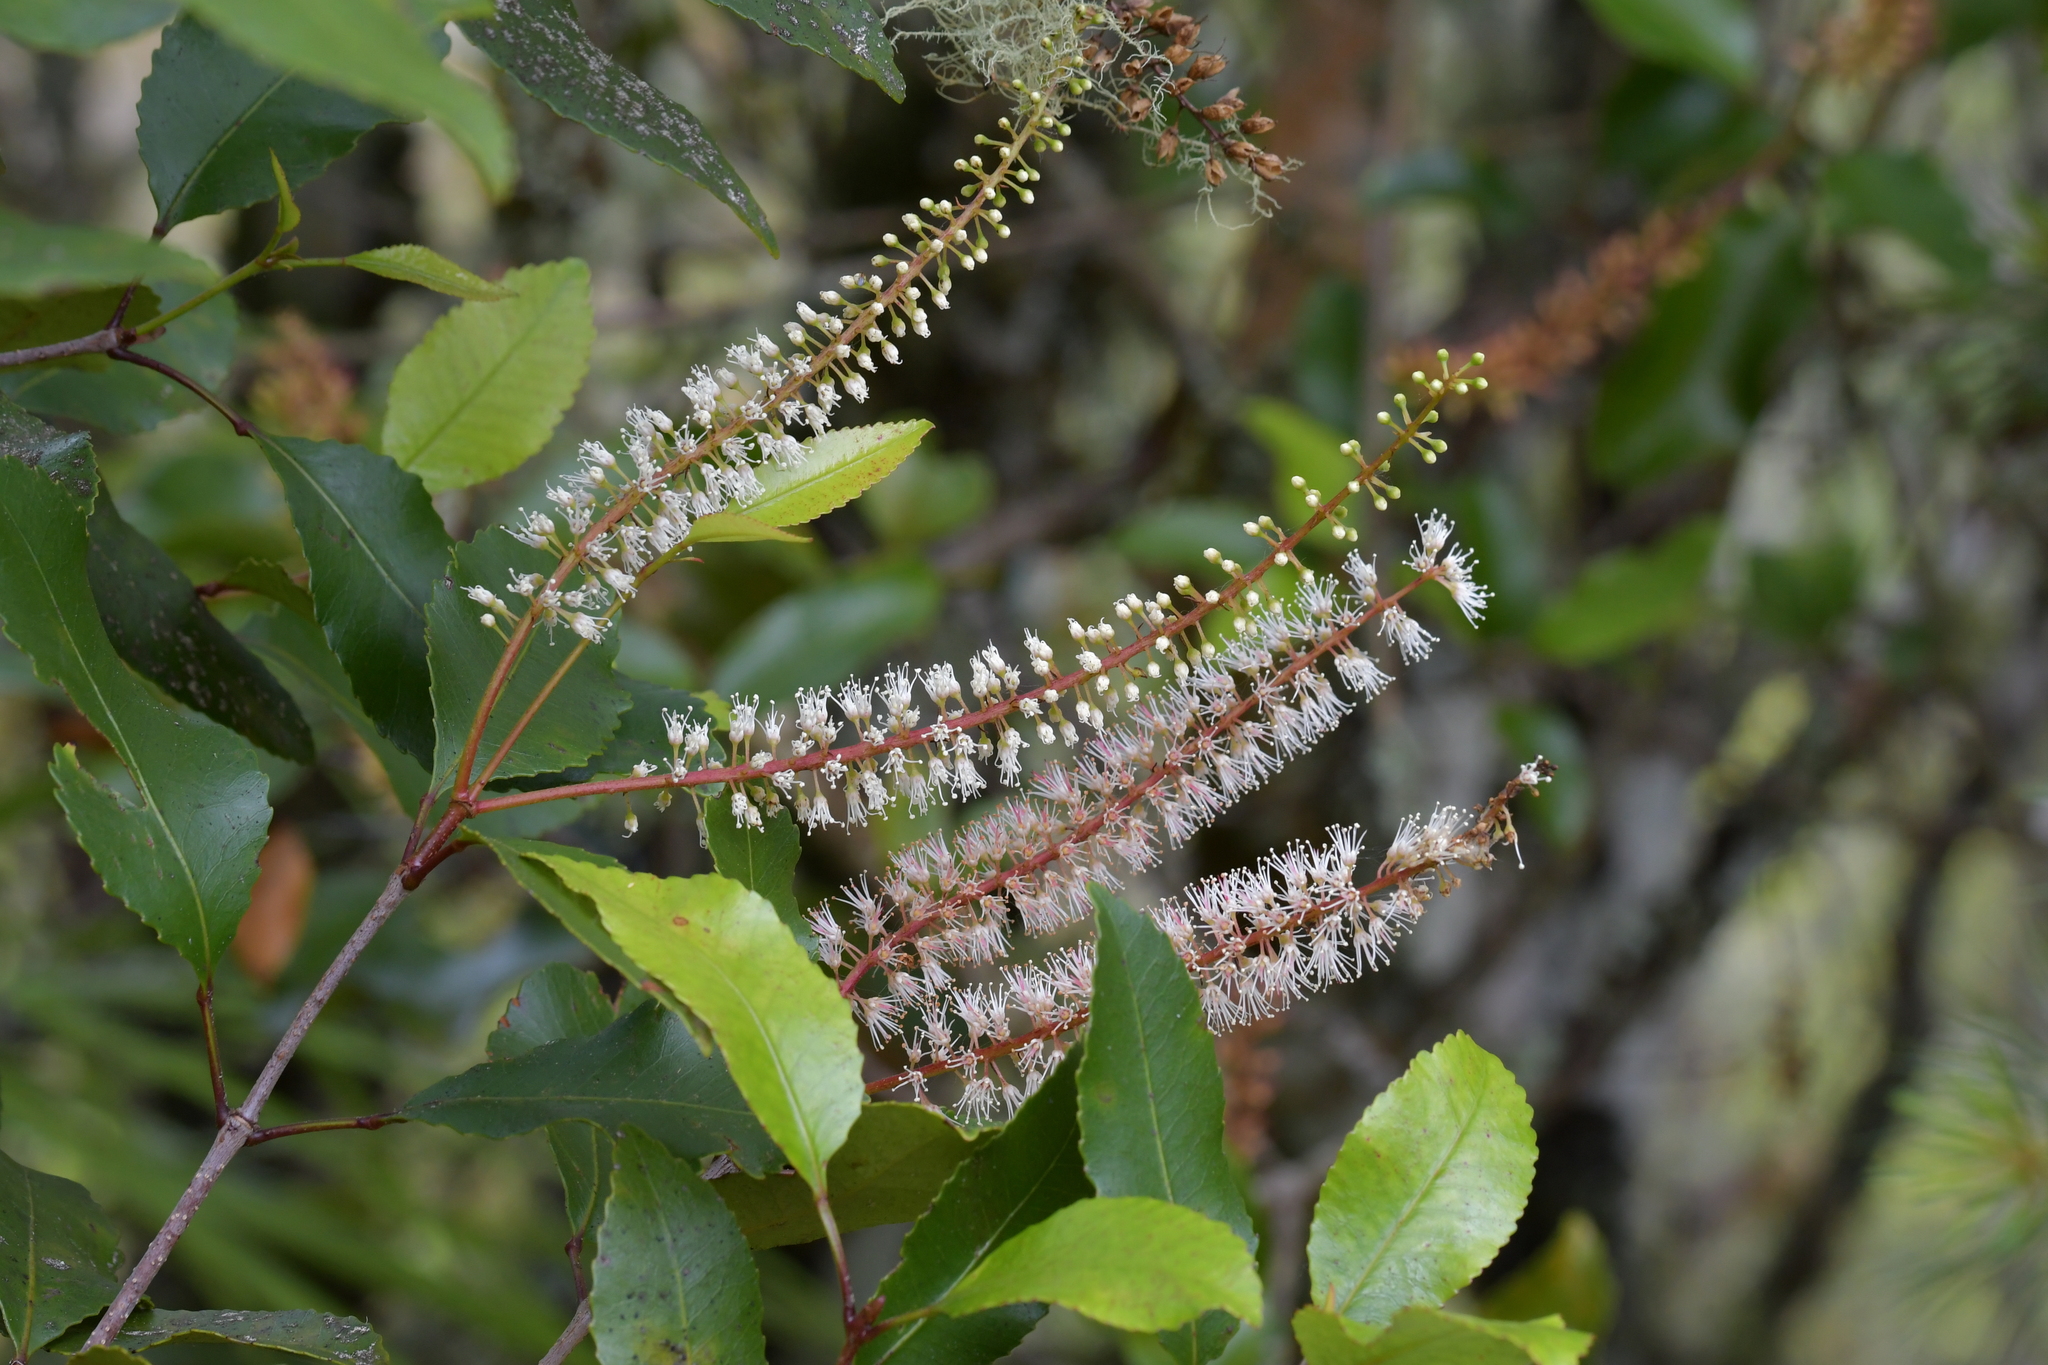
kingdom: Plantae
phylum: Tracheophyta
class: Magnoliopsida
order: Oxalidales
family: Cunoniaceae
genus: Pterophylla
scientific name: Pterophylla racemosa
